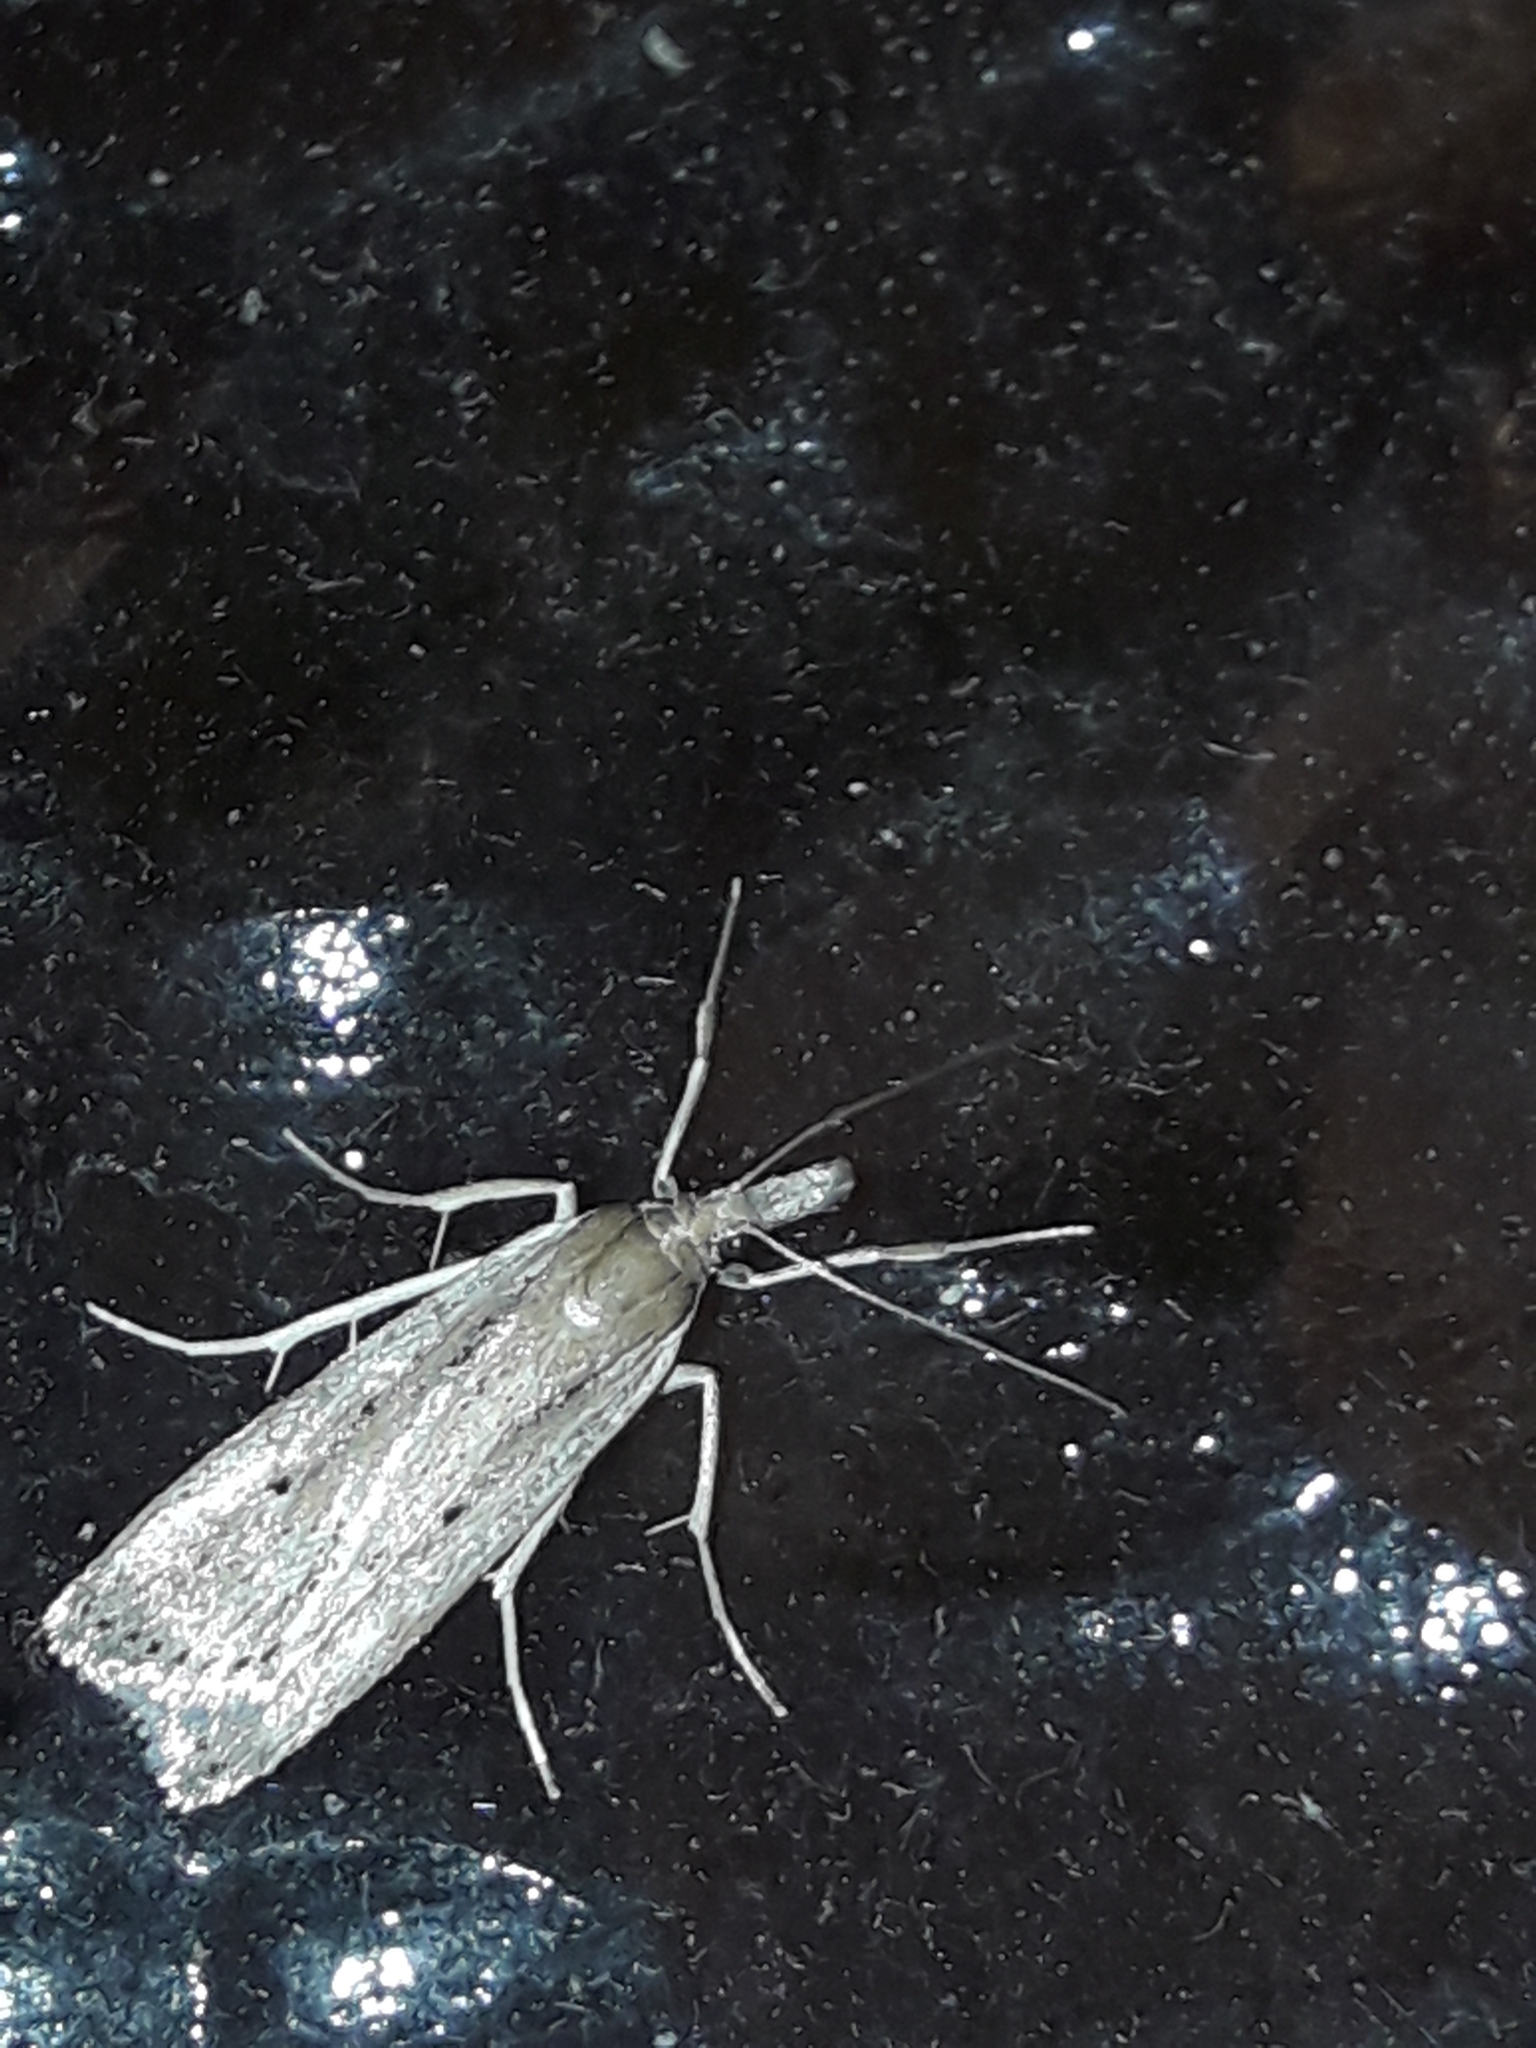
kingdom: Animalia
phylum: Arthropoda
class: Insecta
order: Lepidoptera
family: Crambidae
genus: Eudonia
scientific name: Eudonia sabulosella
